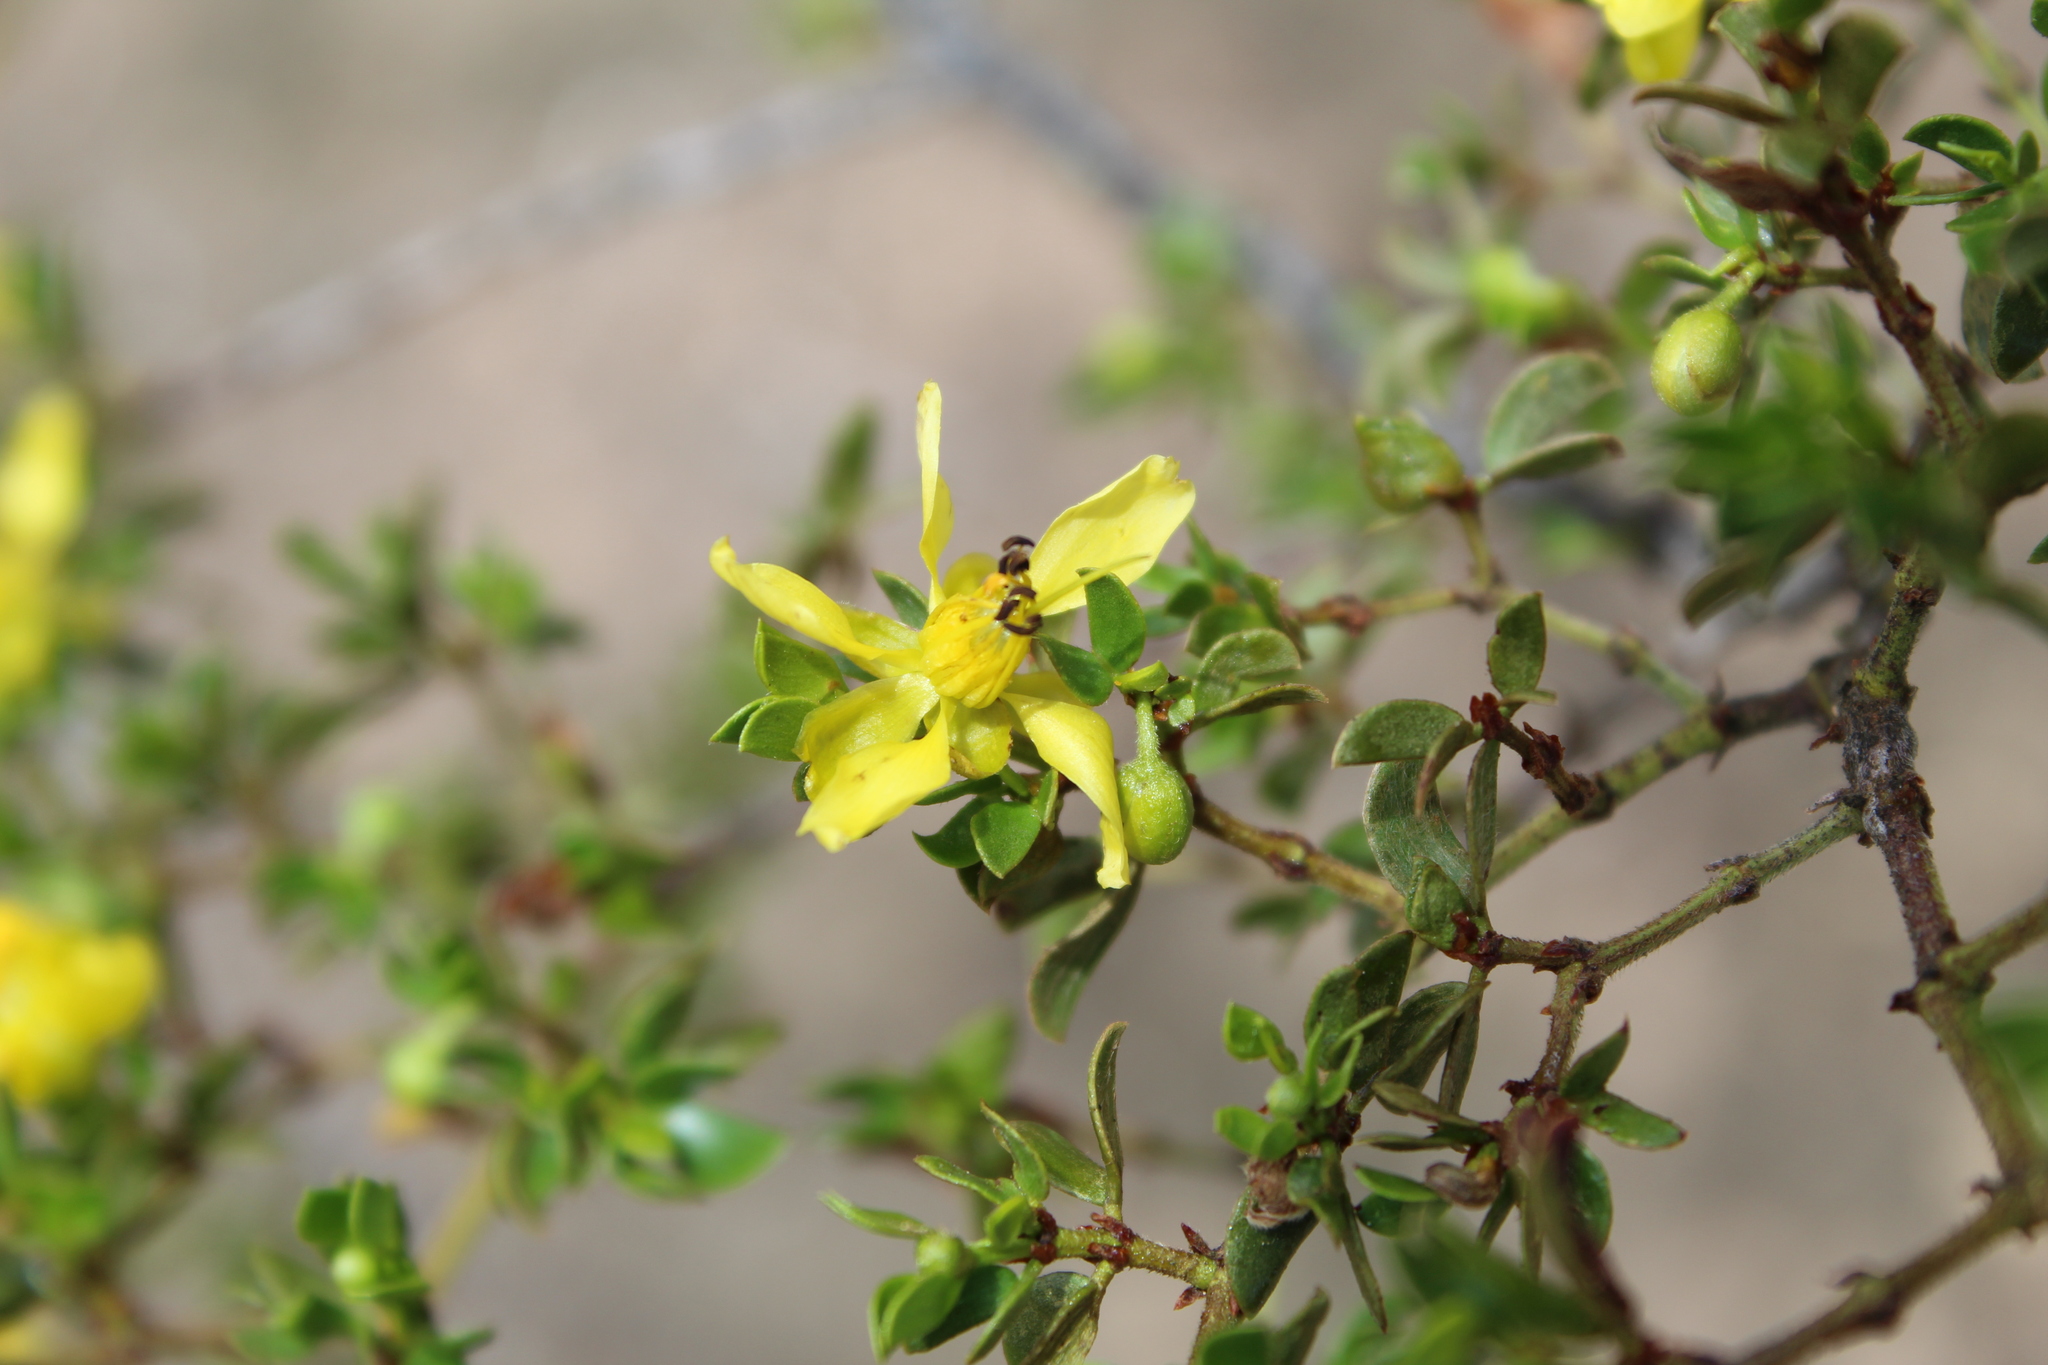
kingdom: Plantae
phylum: Tracheophyta
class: Magnoliopsida
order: Zygophyllales
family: Zygophyllaceae
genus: Larrea
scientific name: Larrea tridentata
